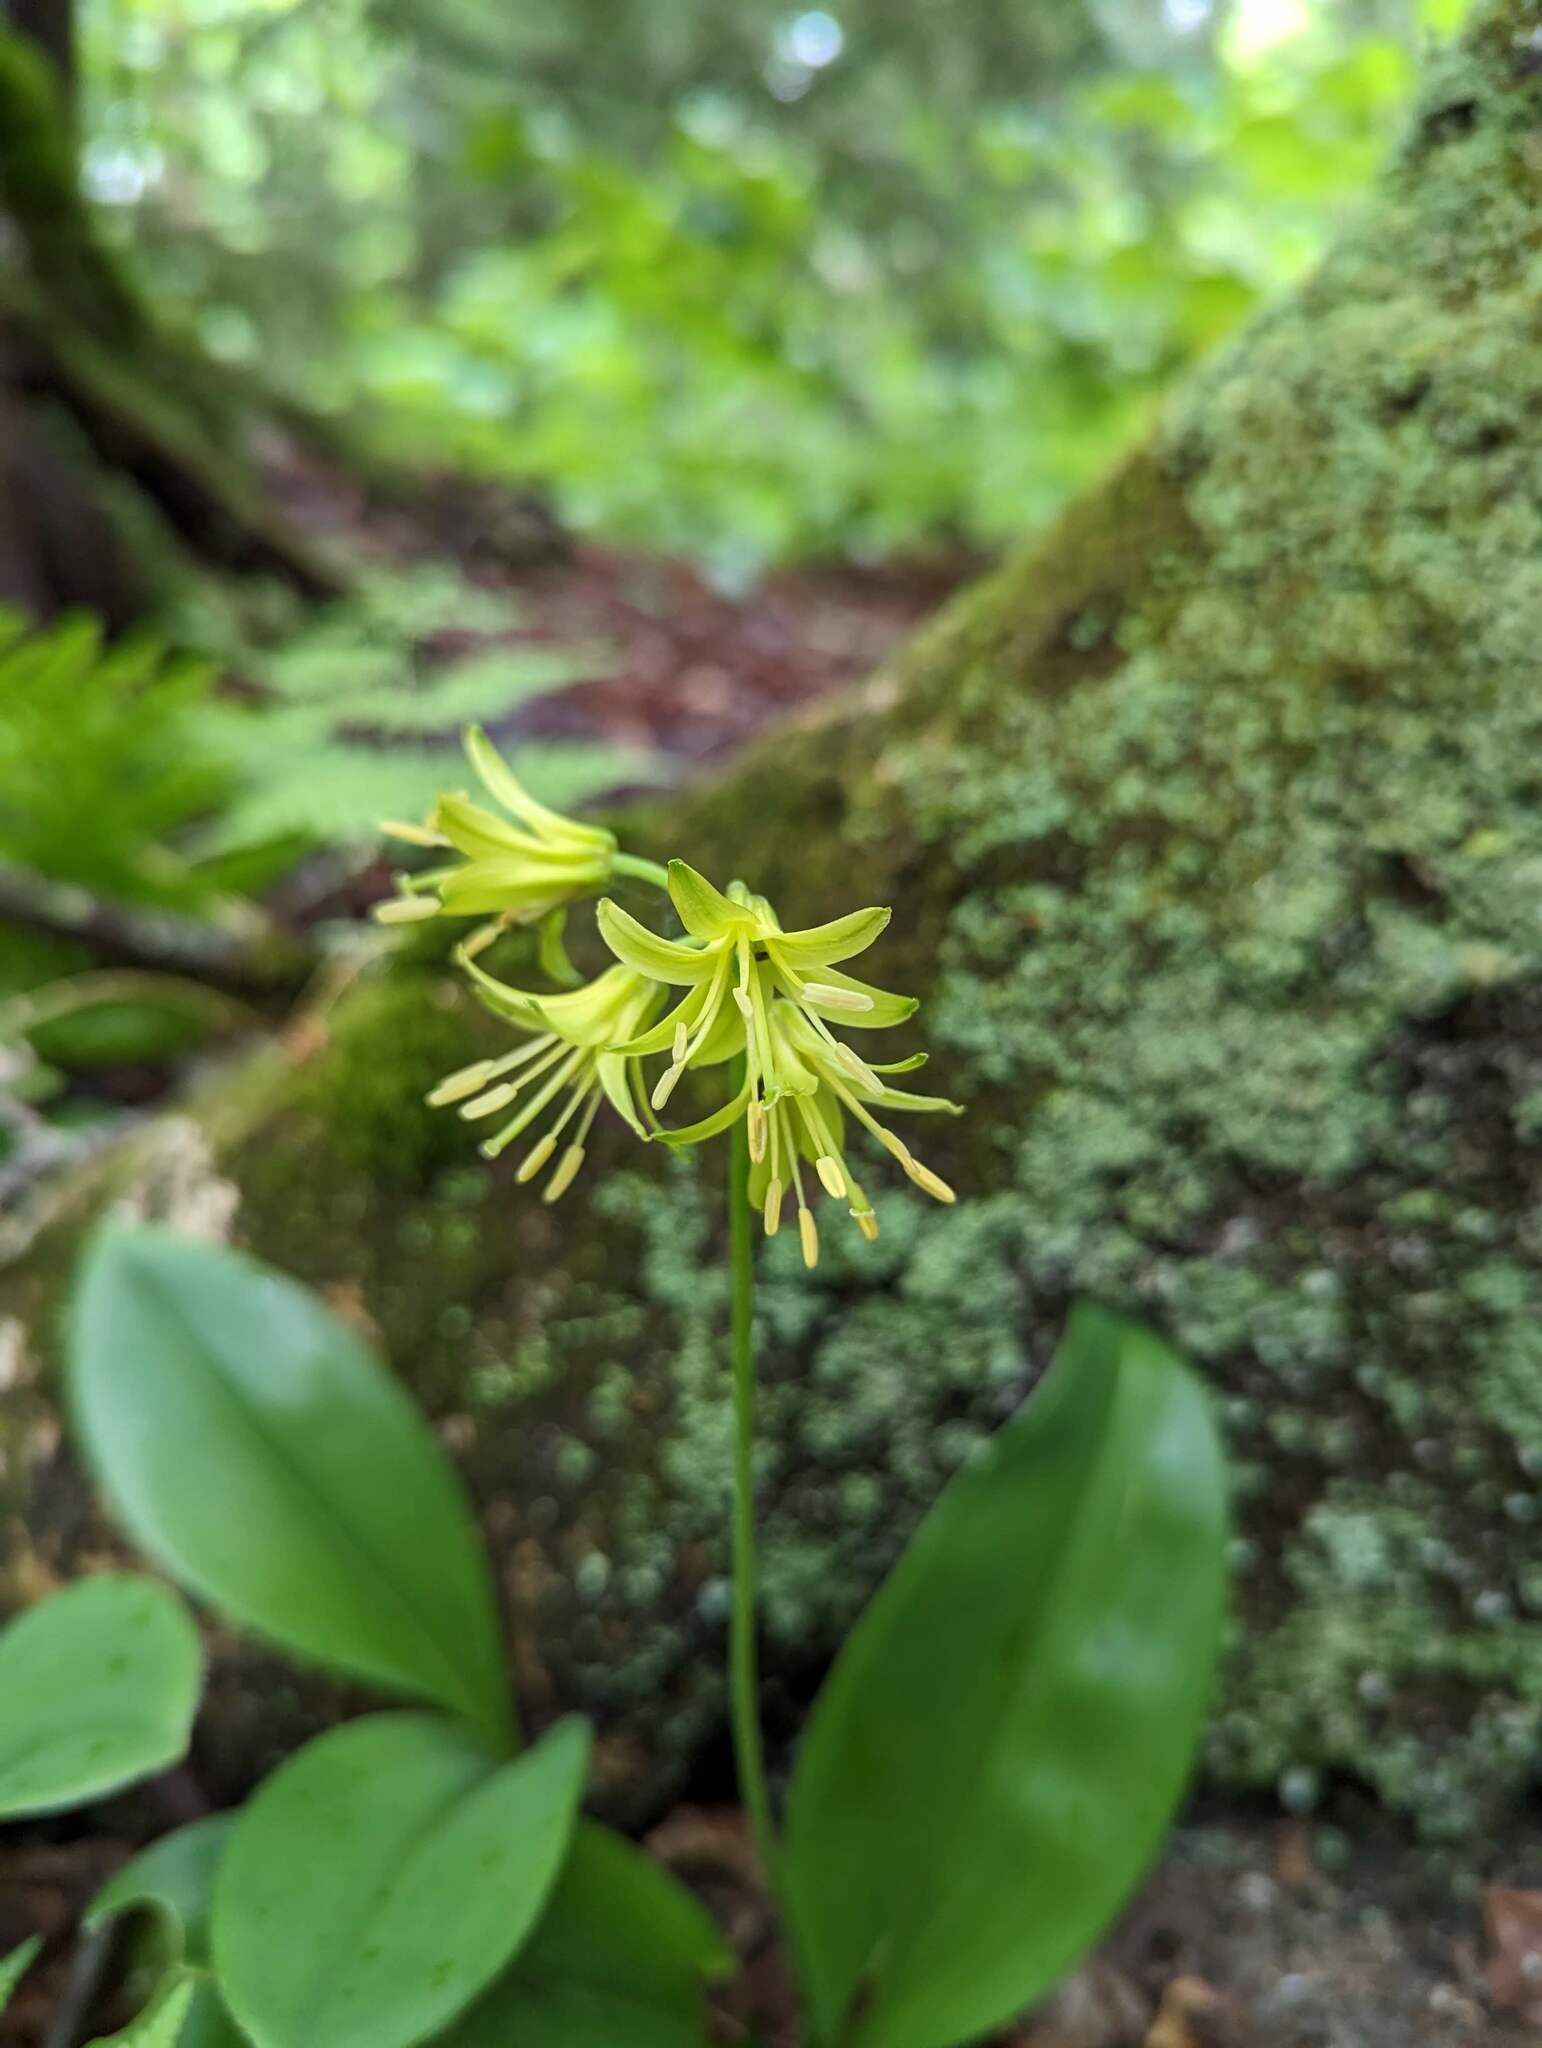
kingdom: Plantae
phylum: Tracheophyta
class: Liliopsida
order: Liliales
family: Liliaceae
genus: Clintonia
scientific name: Clintonia borealis
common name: Yellow clintonia
